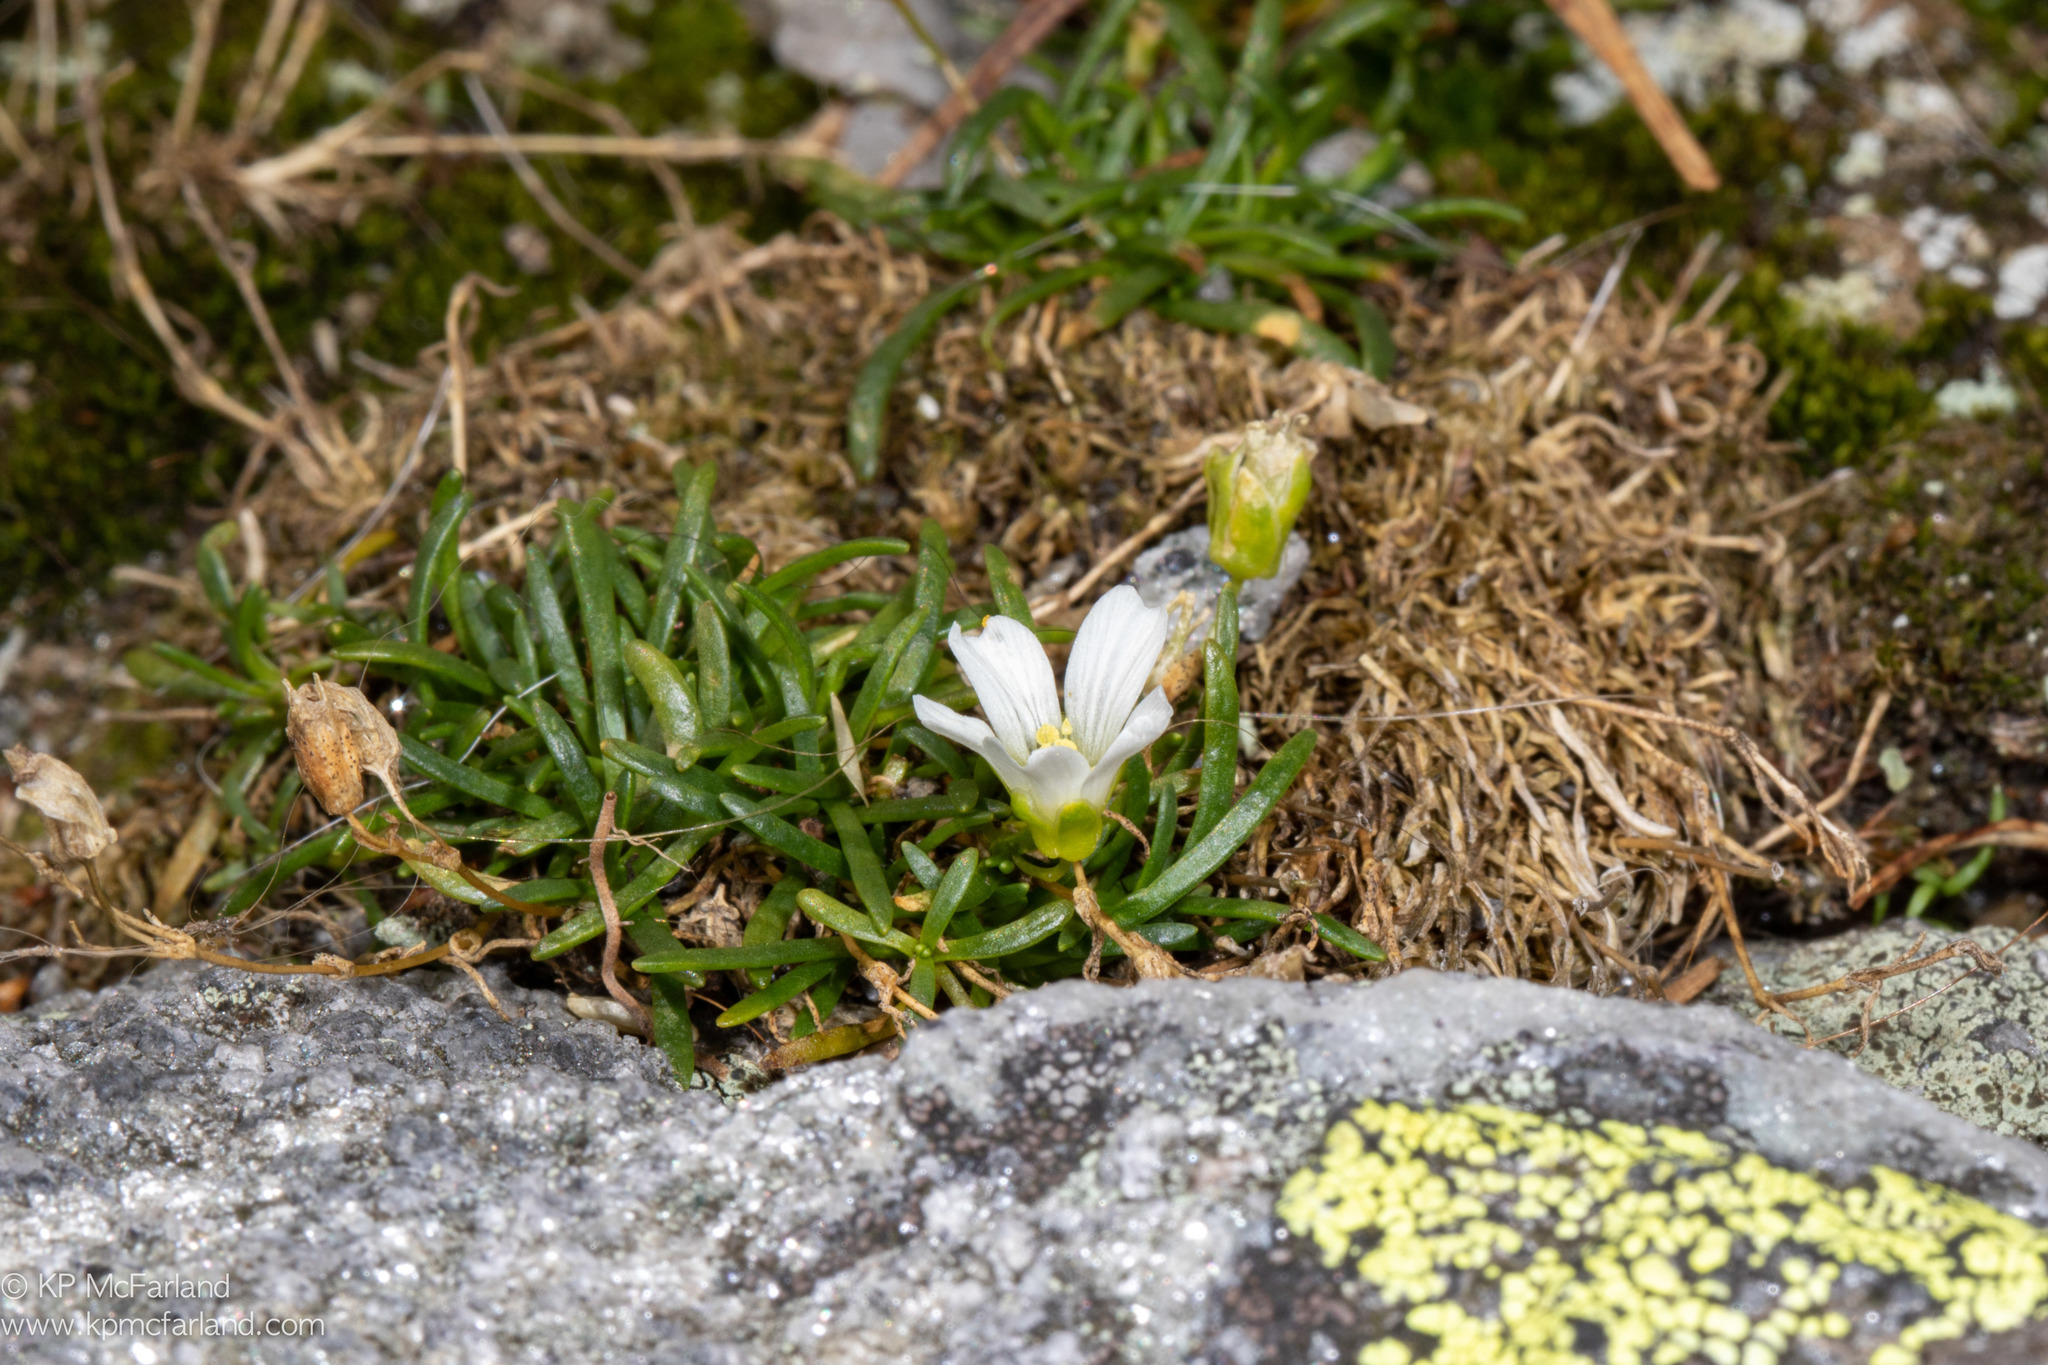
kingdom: Plantae
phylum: Tracheophyta
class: Magnoliopsida
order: Caryophyllales
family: Caryophyllaceae
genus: Geocarpon
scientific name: Geocarpon groenlandicum
